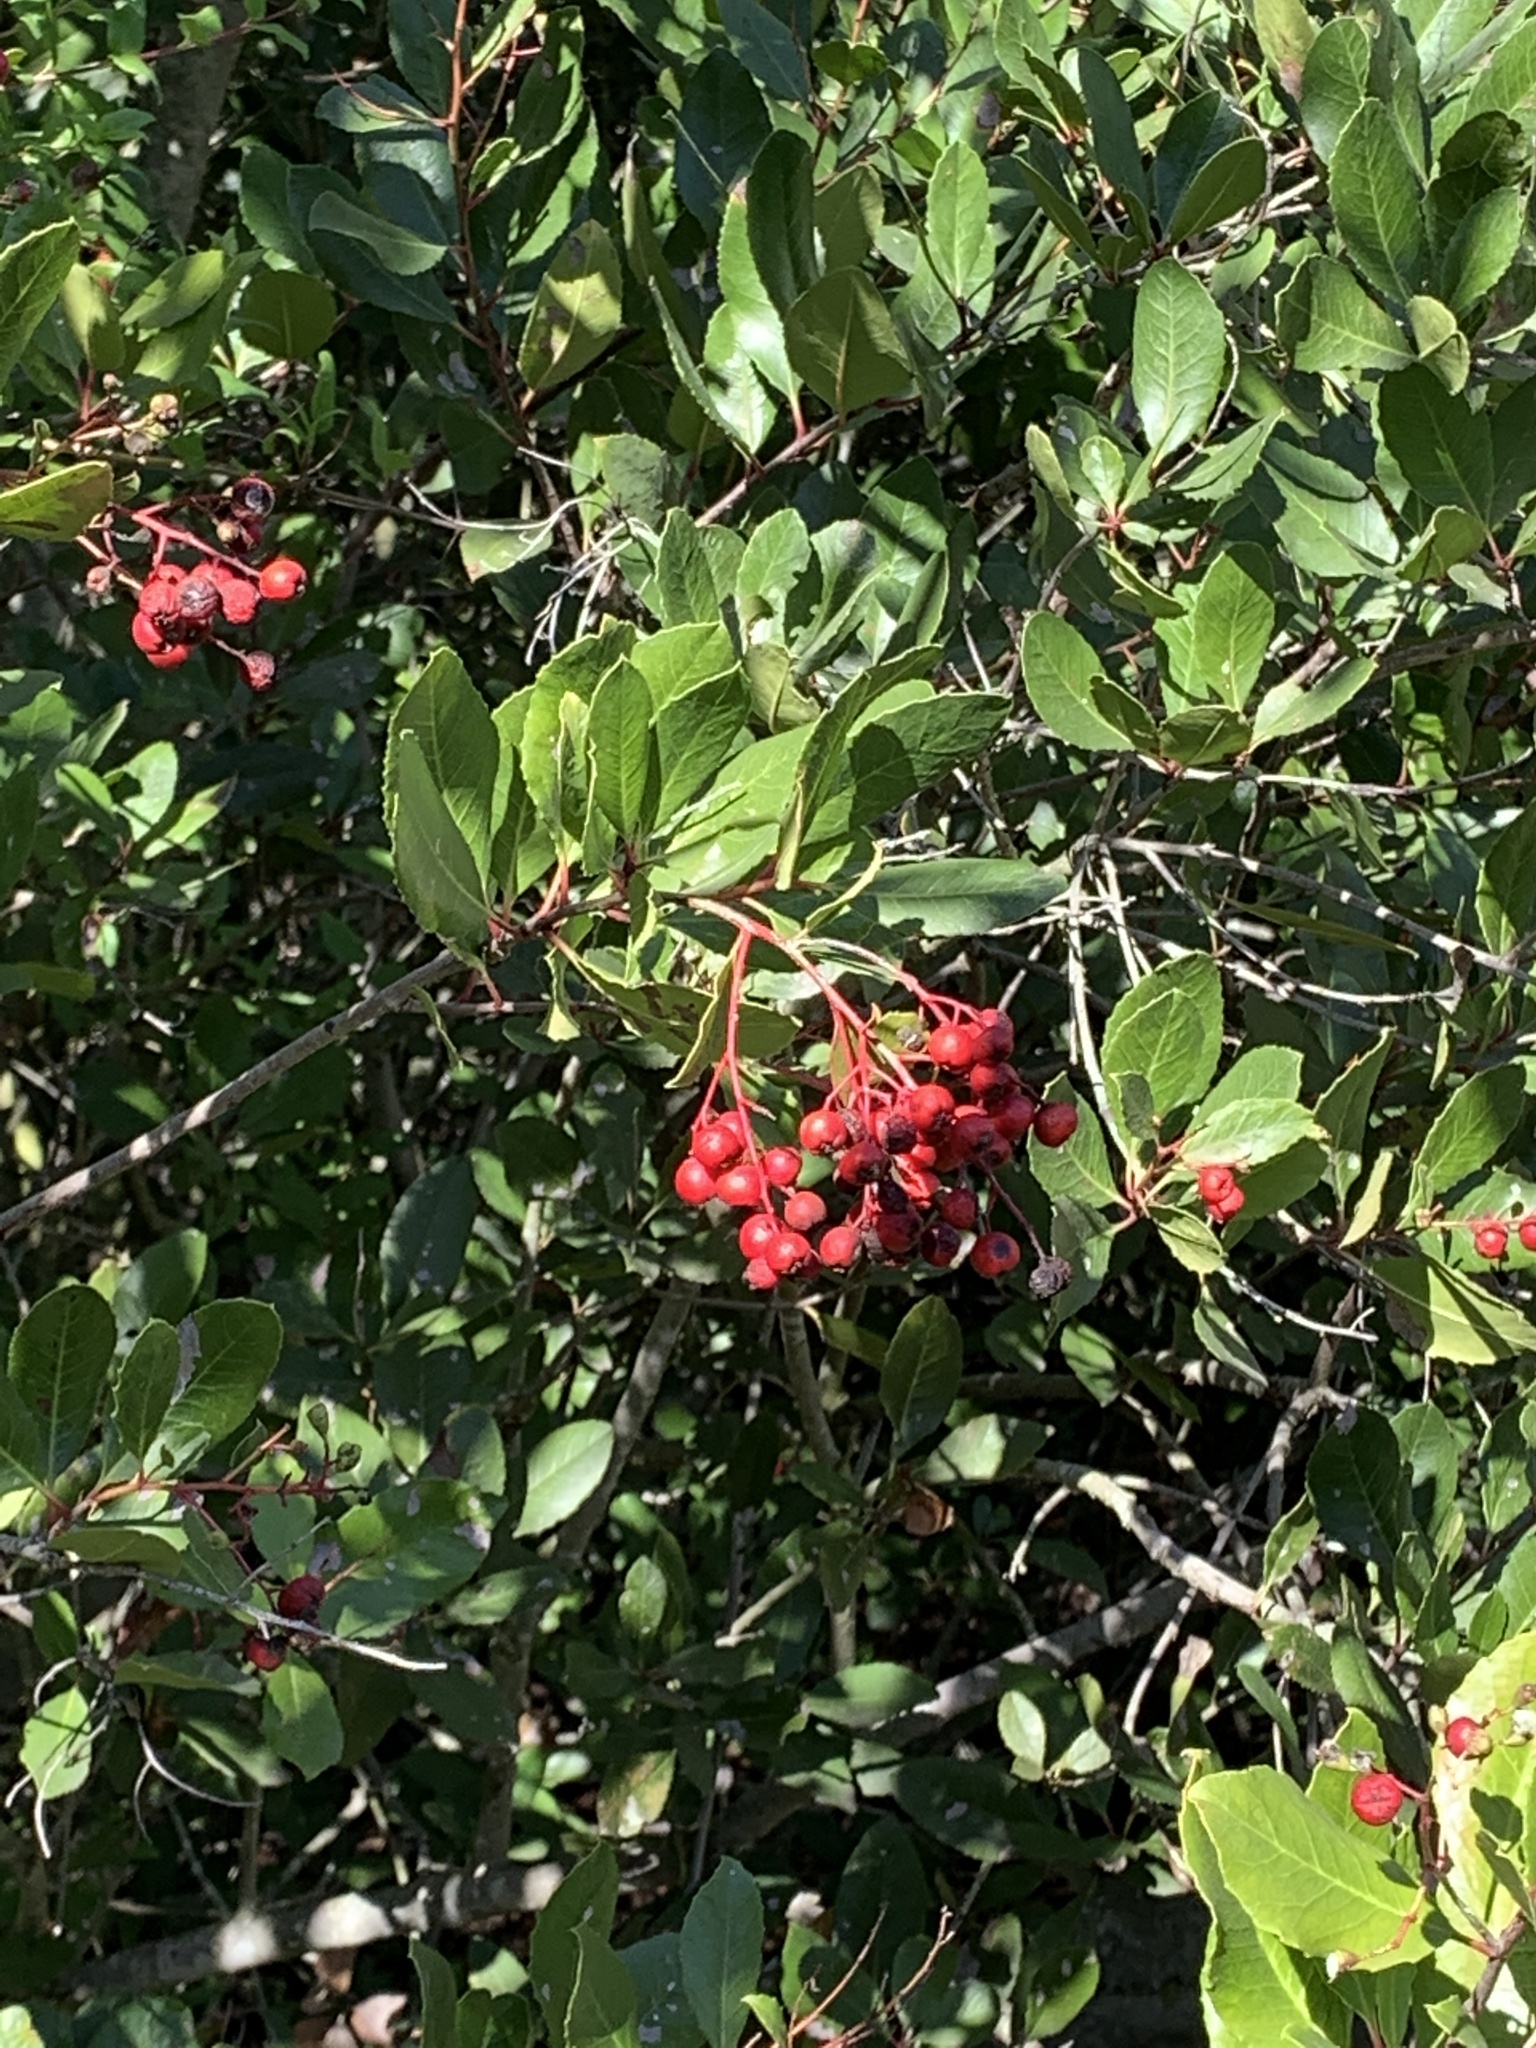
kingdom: Plantae
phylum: Tracheophyta
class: Magnoliopsida
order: Rosales
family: Rosaceae
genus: Heteromeles
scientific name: Heteromeles arbutifolia
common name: California-holly
